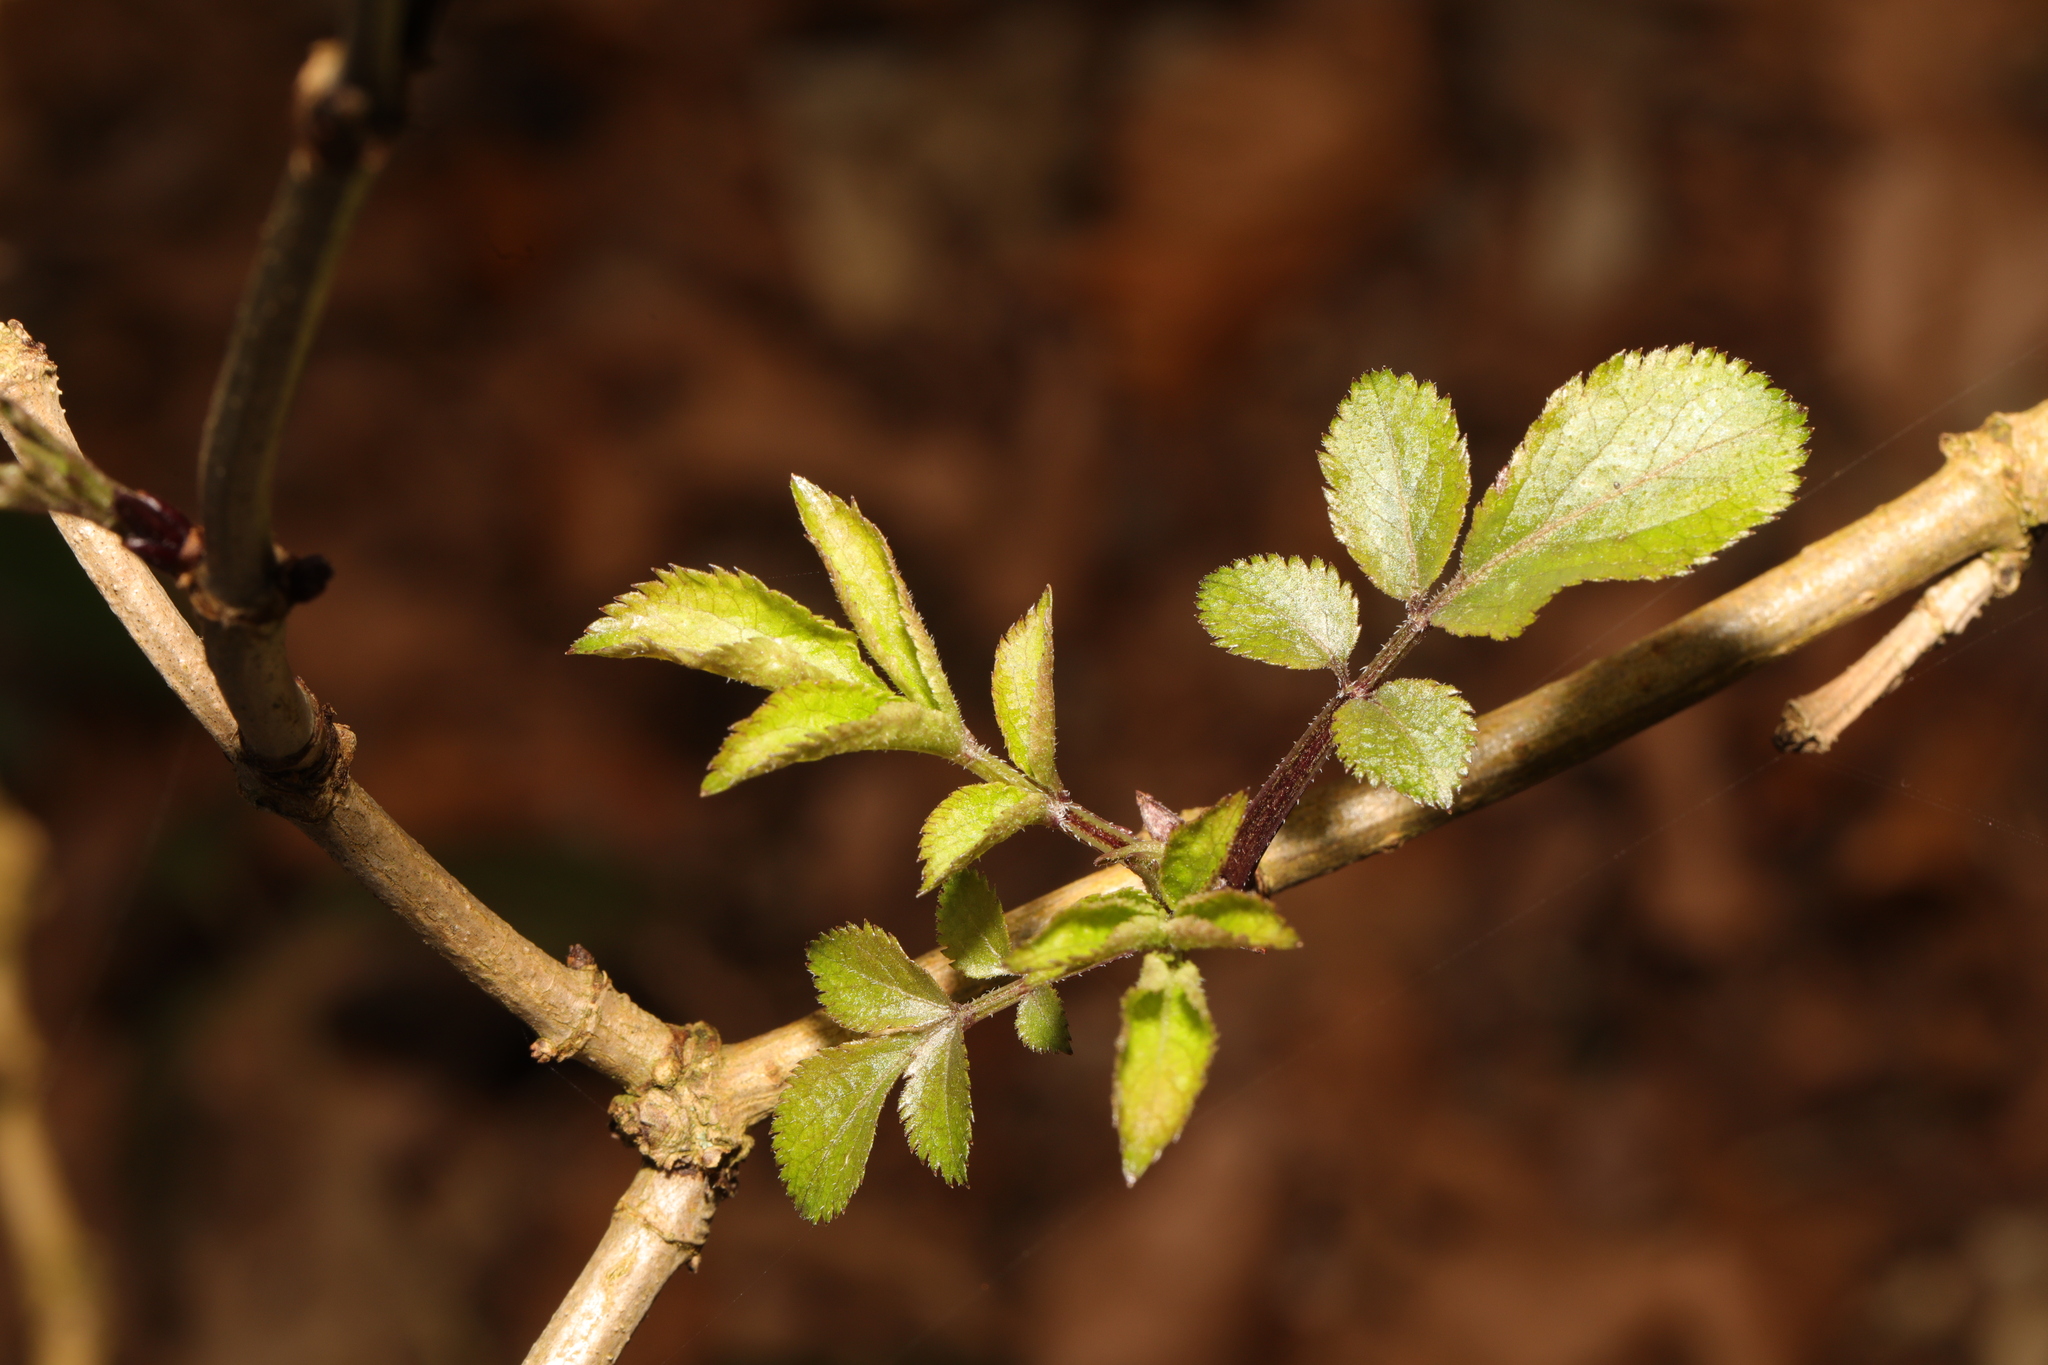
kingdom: Plantae
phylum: Tracheophyta
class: Magnoliopsida
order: Dipsacales
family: Viburnaceae
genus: Sambucus
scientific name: Sambucus nigra
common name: Elder
